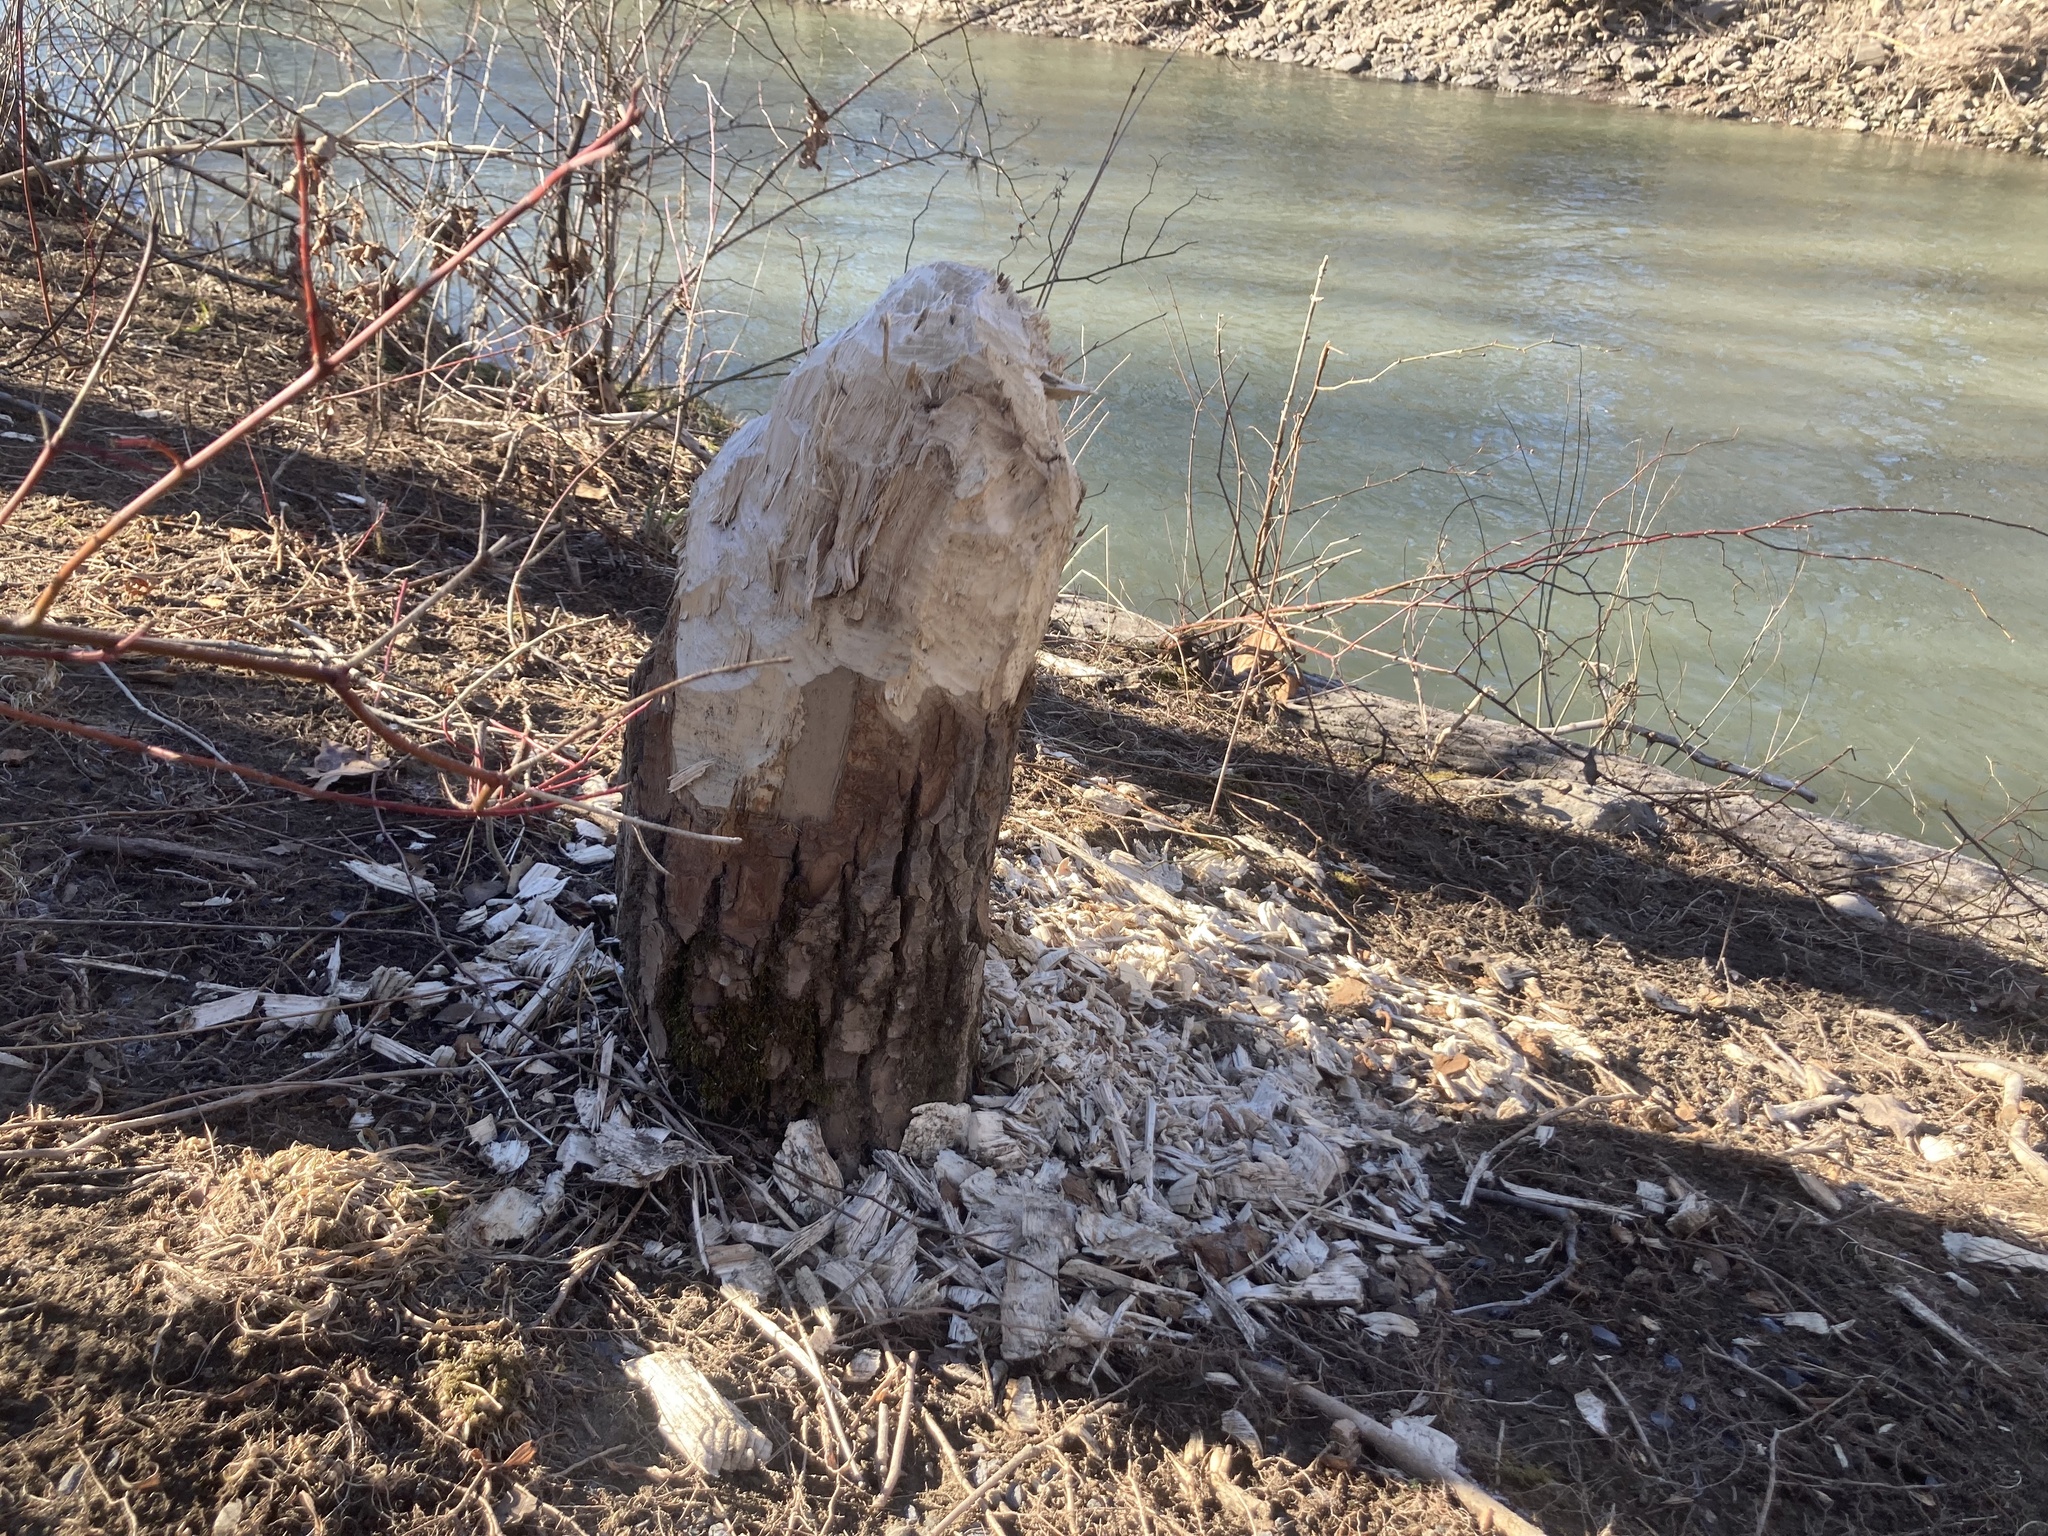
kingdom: Animalia
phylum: Chordata
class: Mammalia
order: Rodentia
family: Castoridae
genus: Castor
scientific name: Castor canadensis
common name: American beaver
